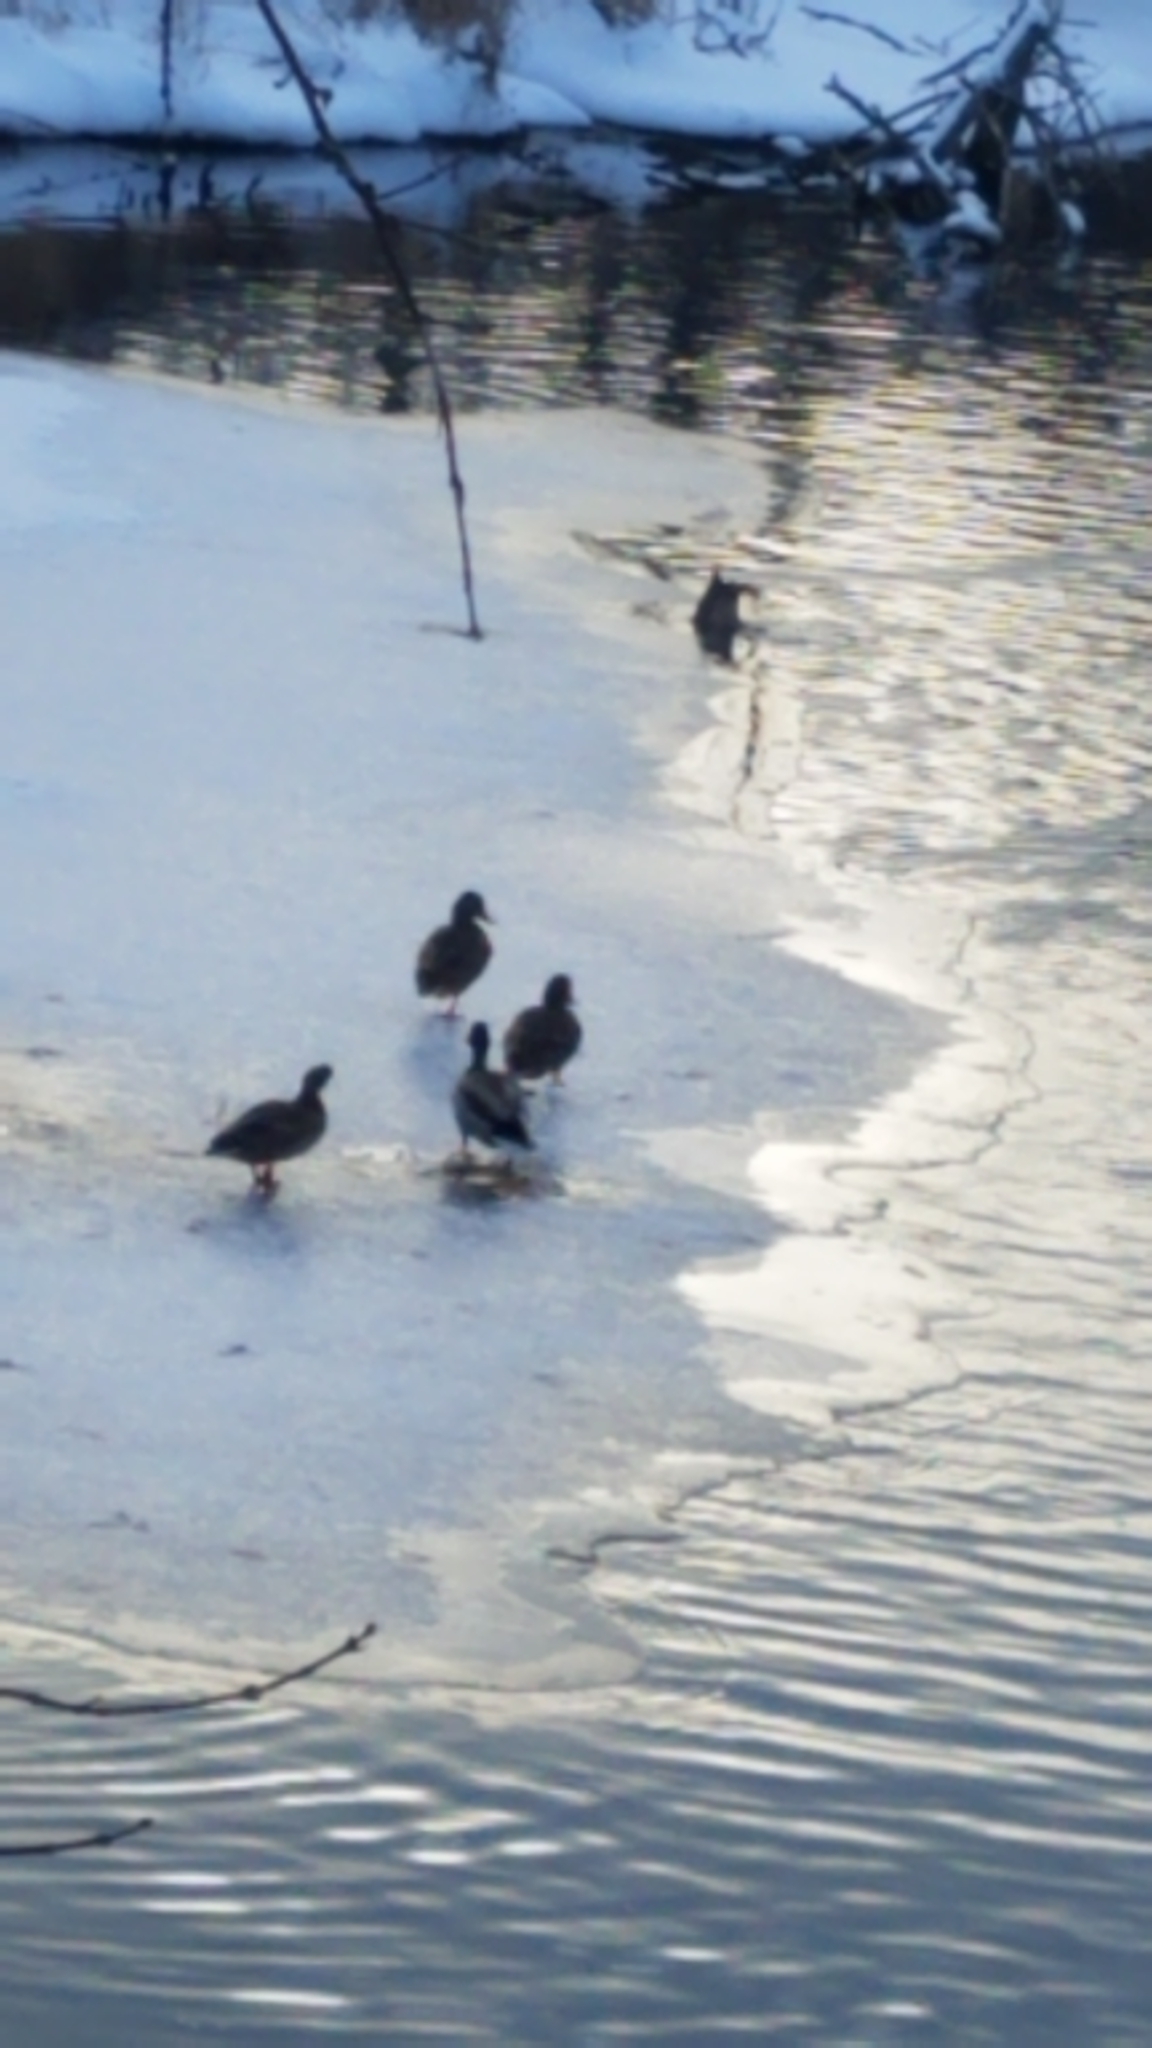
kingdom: Animalia
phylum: Chordata
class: Aves
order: Anseriformes
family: Anatidae
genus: Anas
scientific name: Anas platyrhynchos
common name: Mallard
